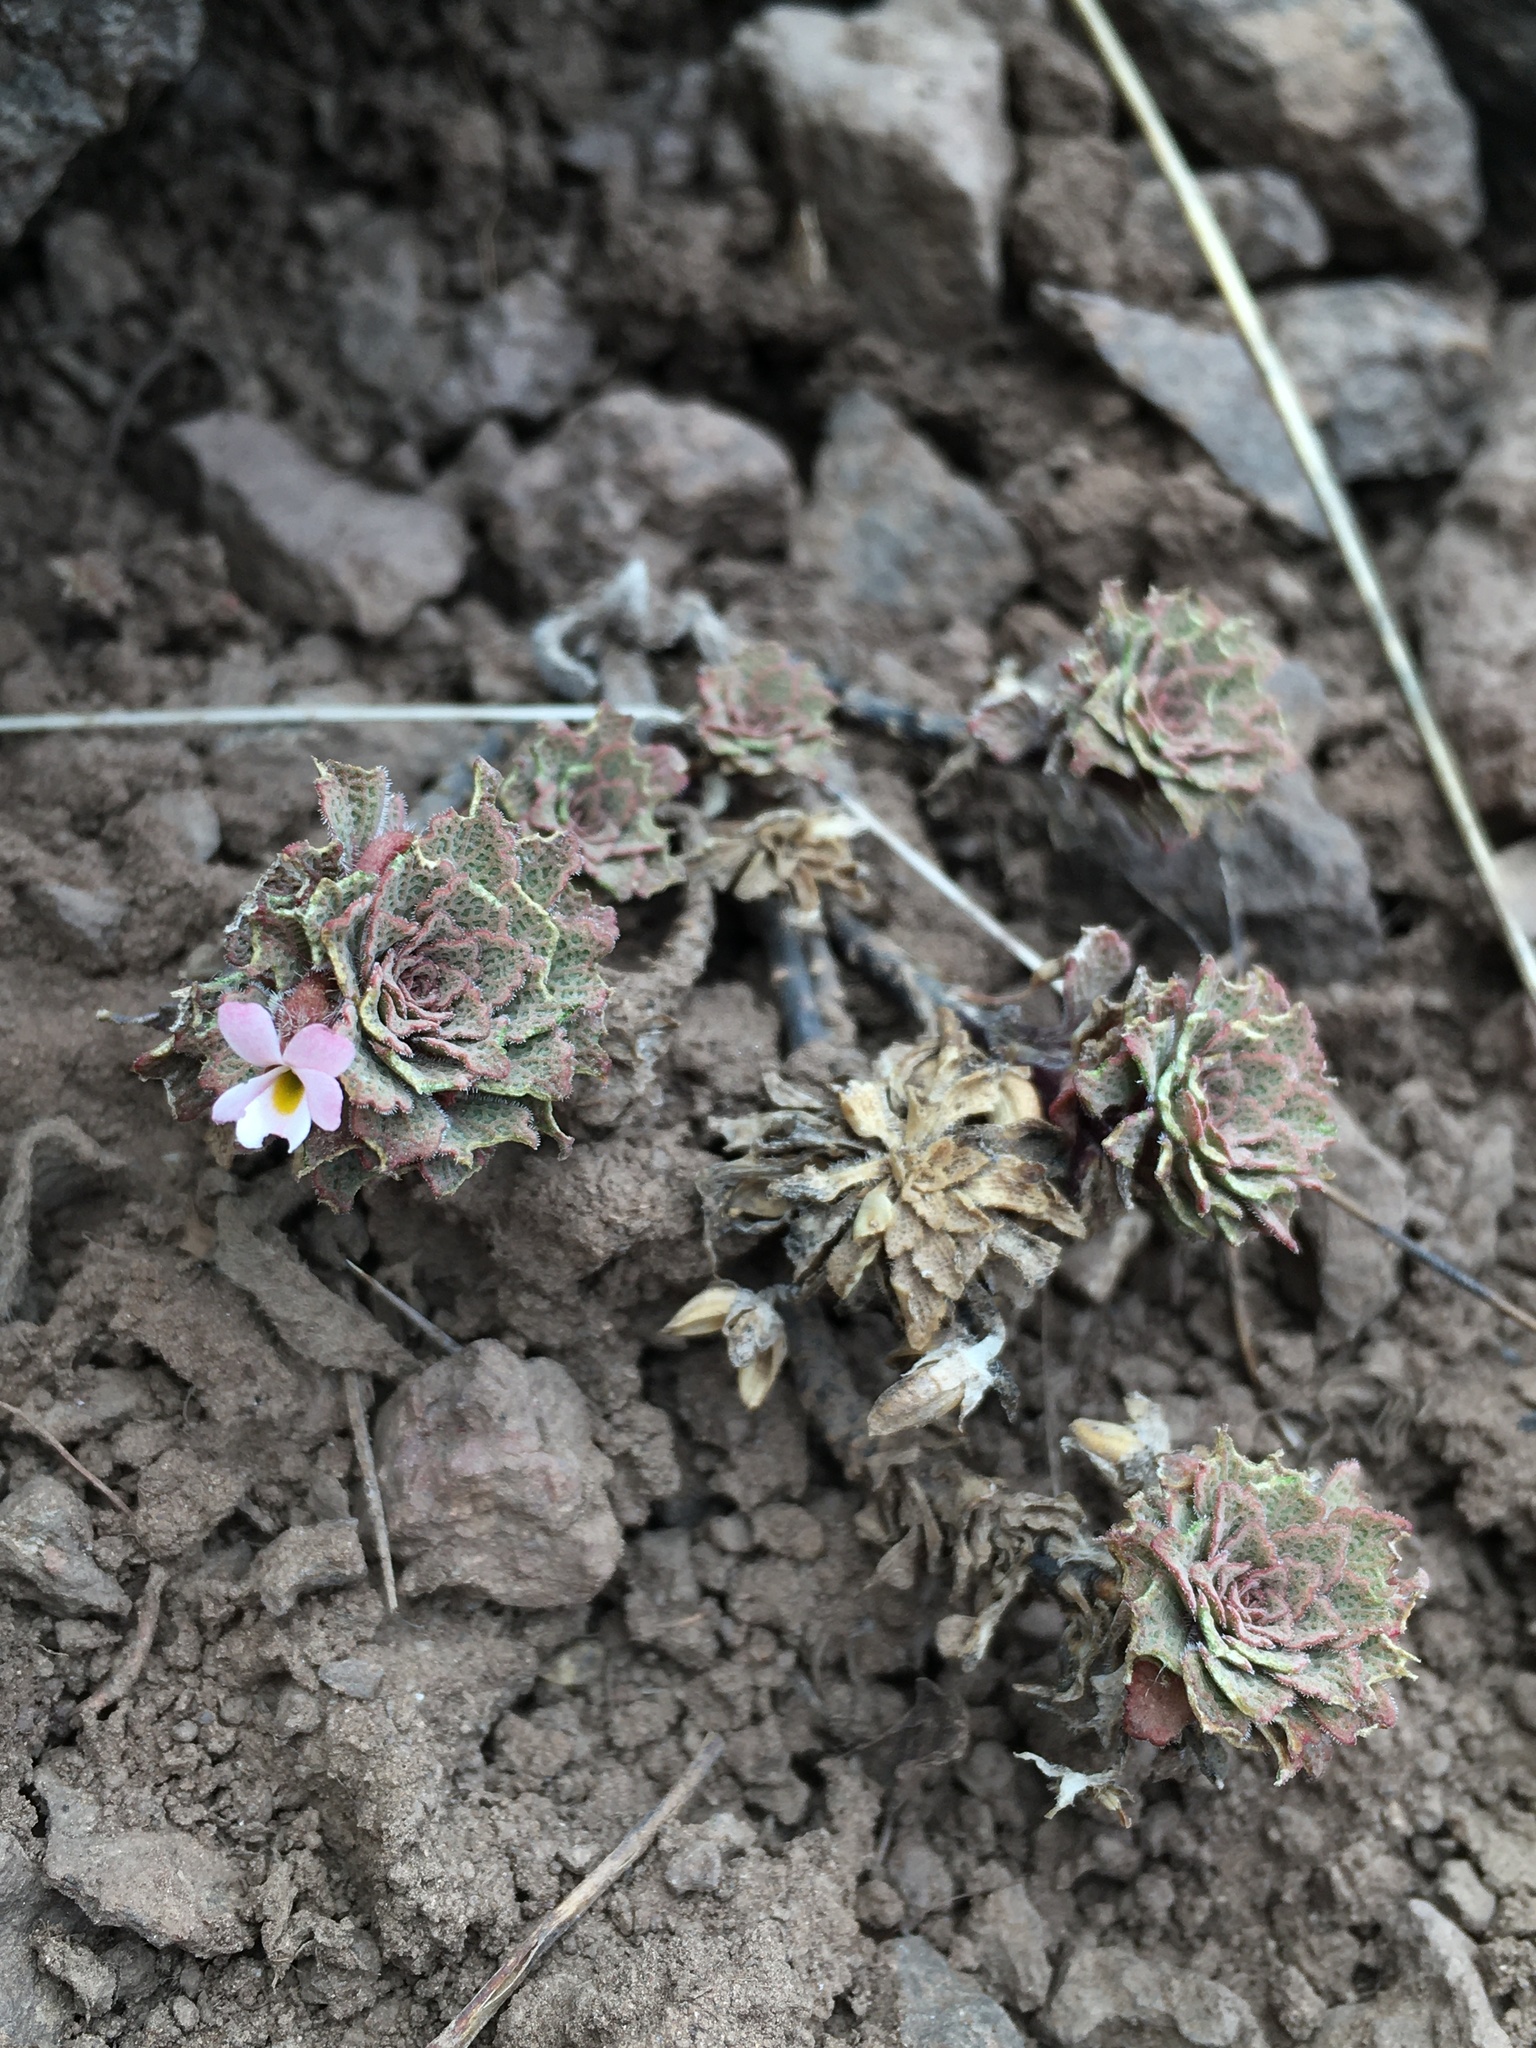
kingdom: Plantae
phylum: Tracheophyta
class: Magnoliopsida
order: Malpighiales
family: Violaceae
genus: Viola
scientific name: Viola
